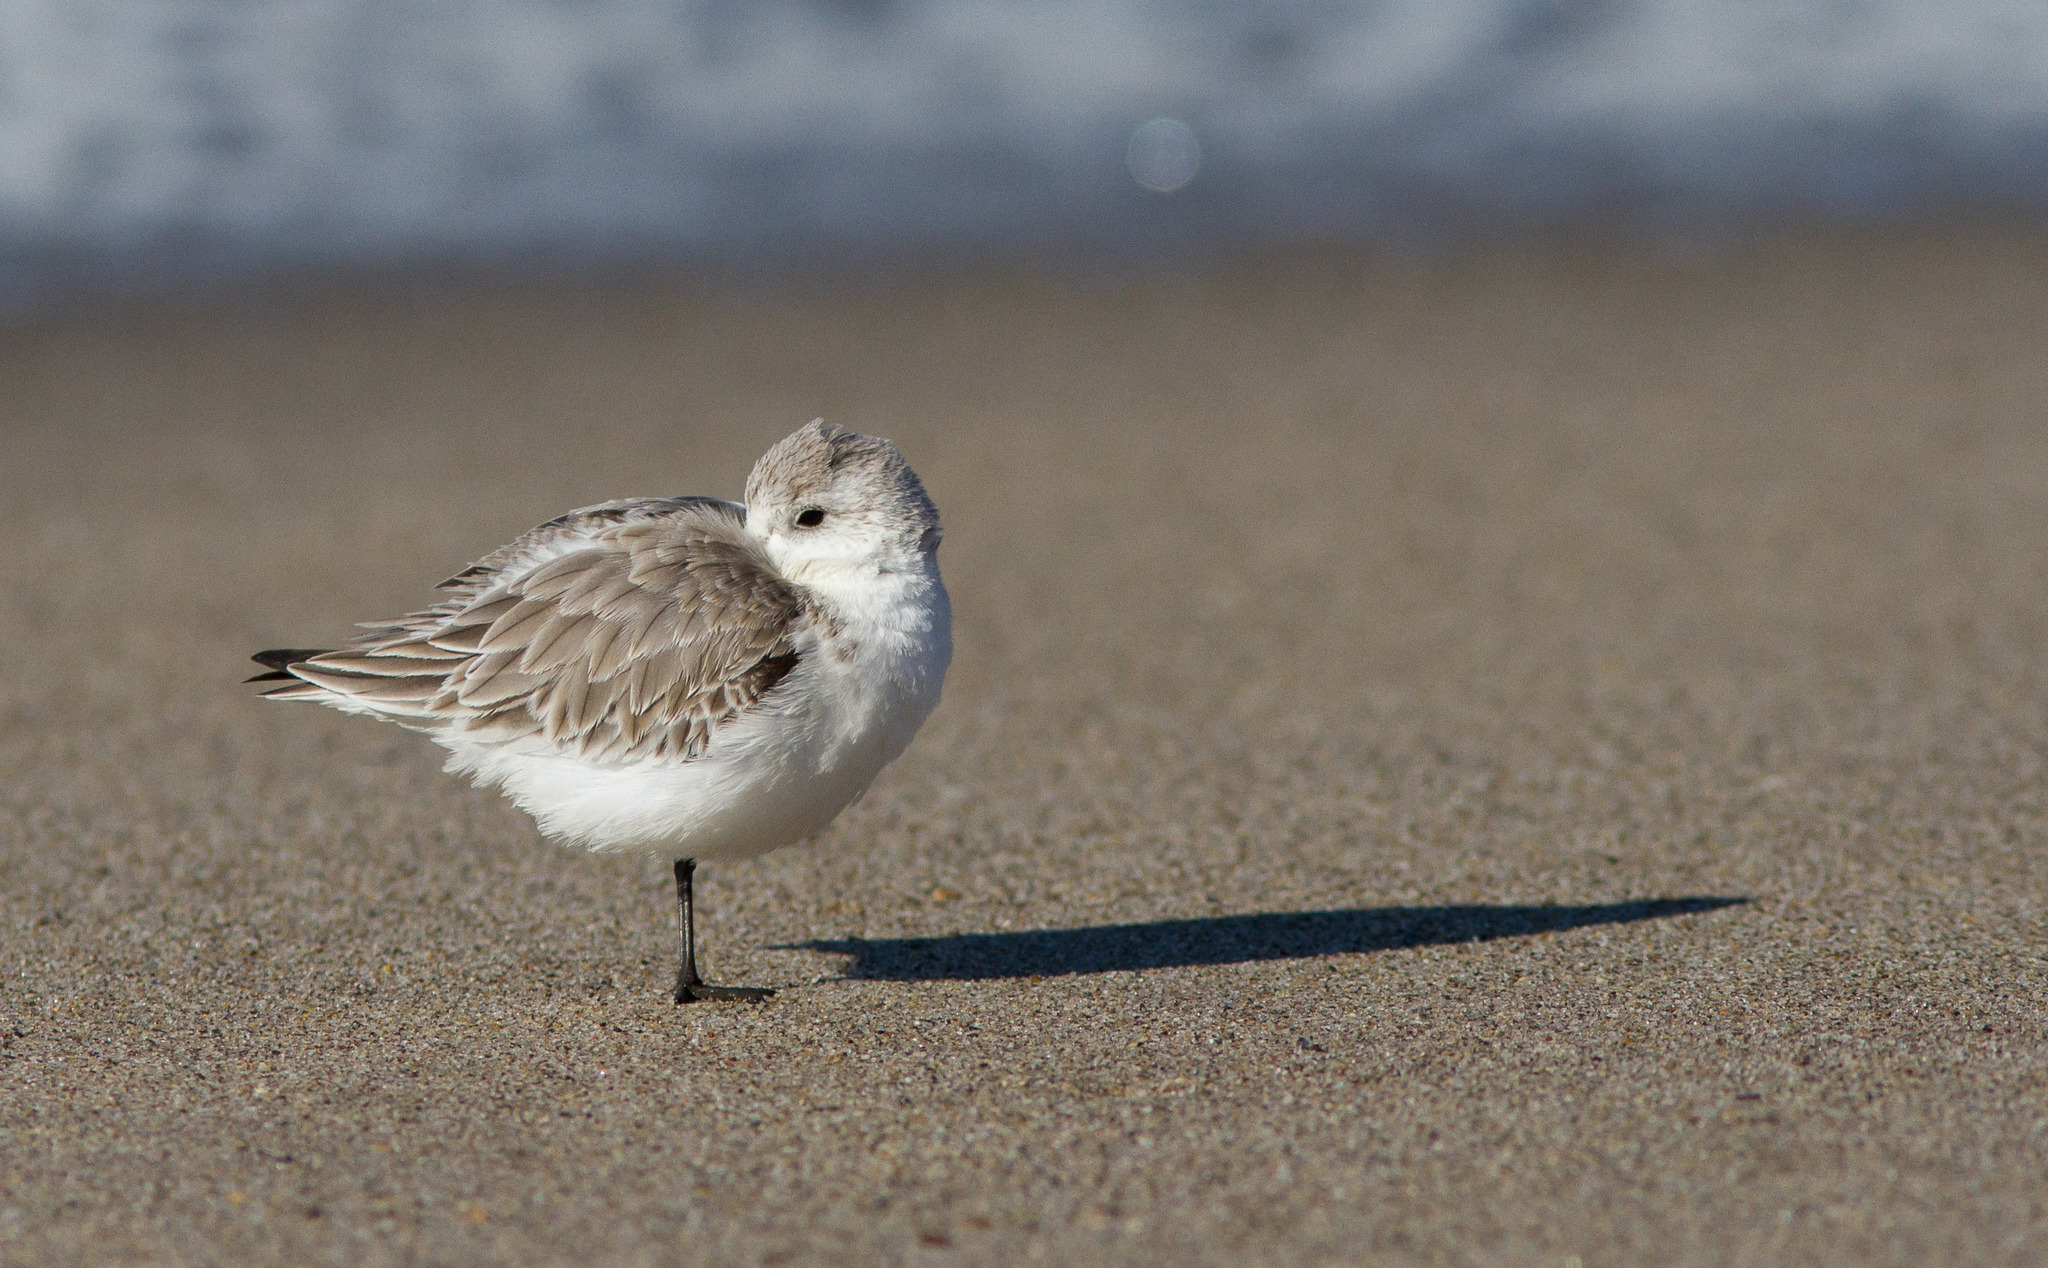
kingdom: Animalia
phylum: Chordata
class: Aves
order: Charadriiformes
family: Scolopacidae
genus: Calidris
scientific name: Calidris alba
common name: Sanderling
